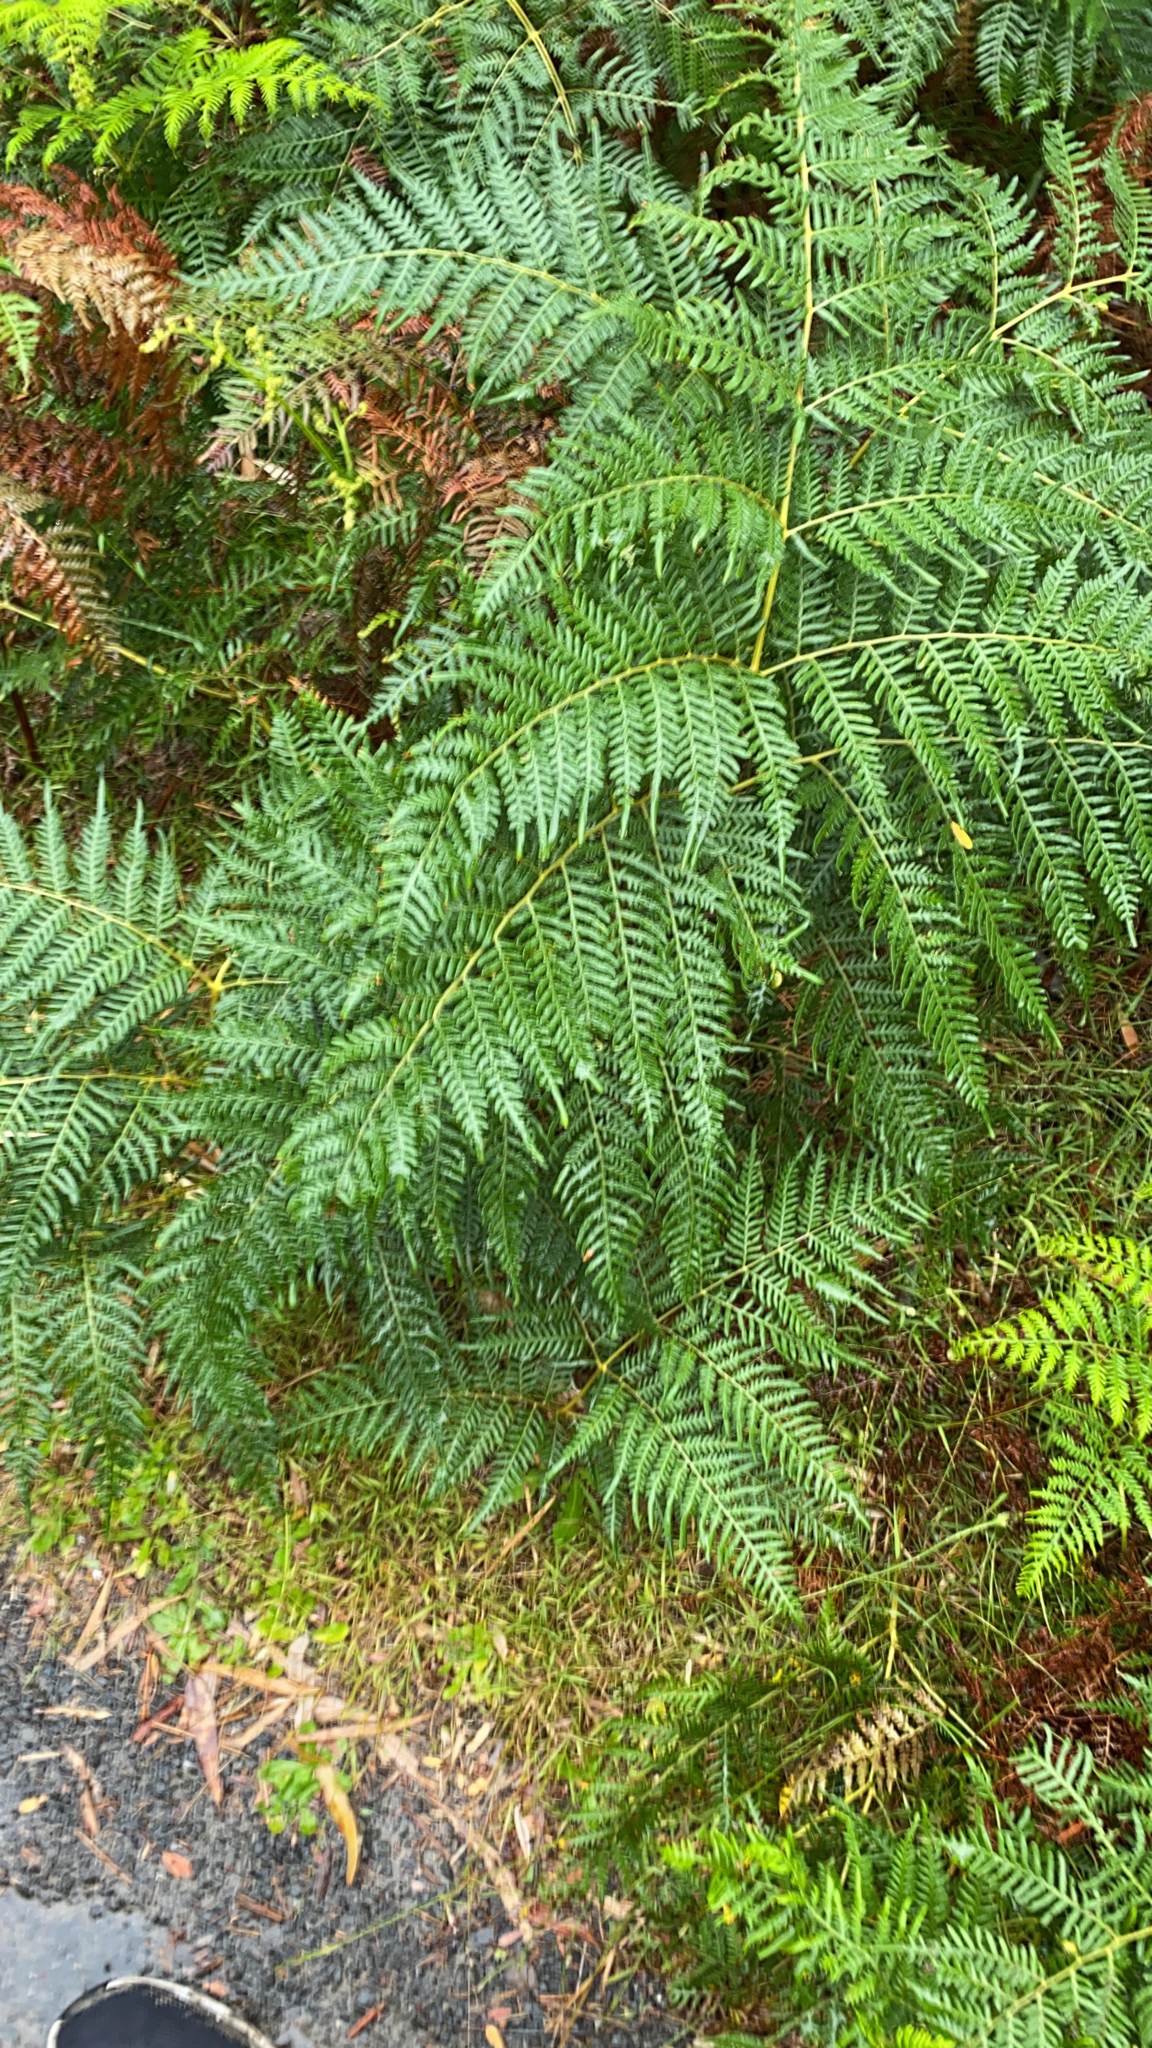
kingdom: Plantae
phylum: Tracheophyta
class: Polypodiopsida
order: Polypodiales
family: Dennstaedtiaceae
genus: Pteridium
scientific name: Pteridium esculentum
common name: Bracken fern
